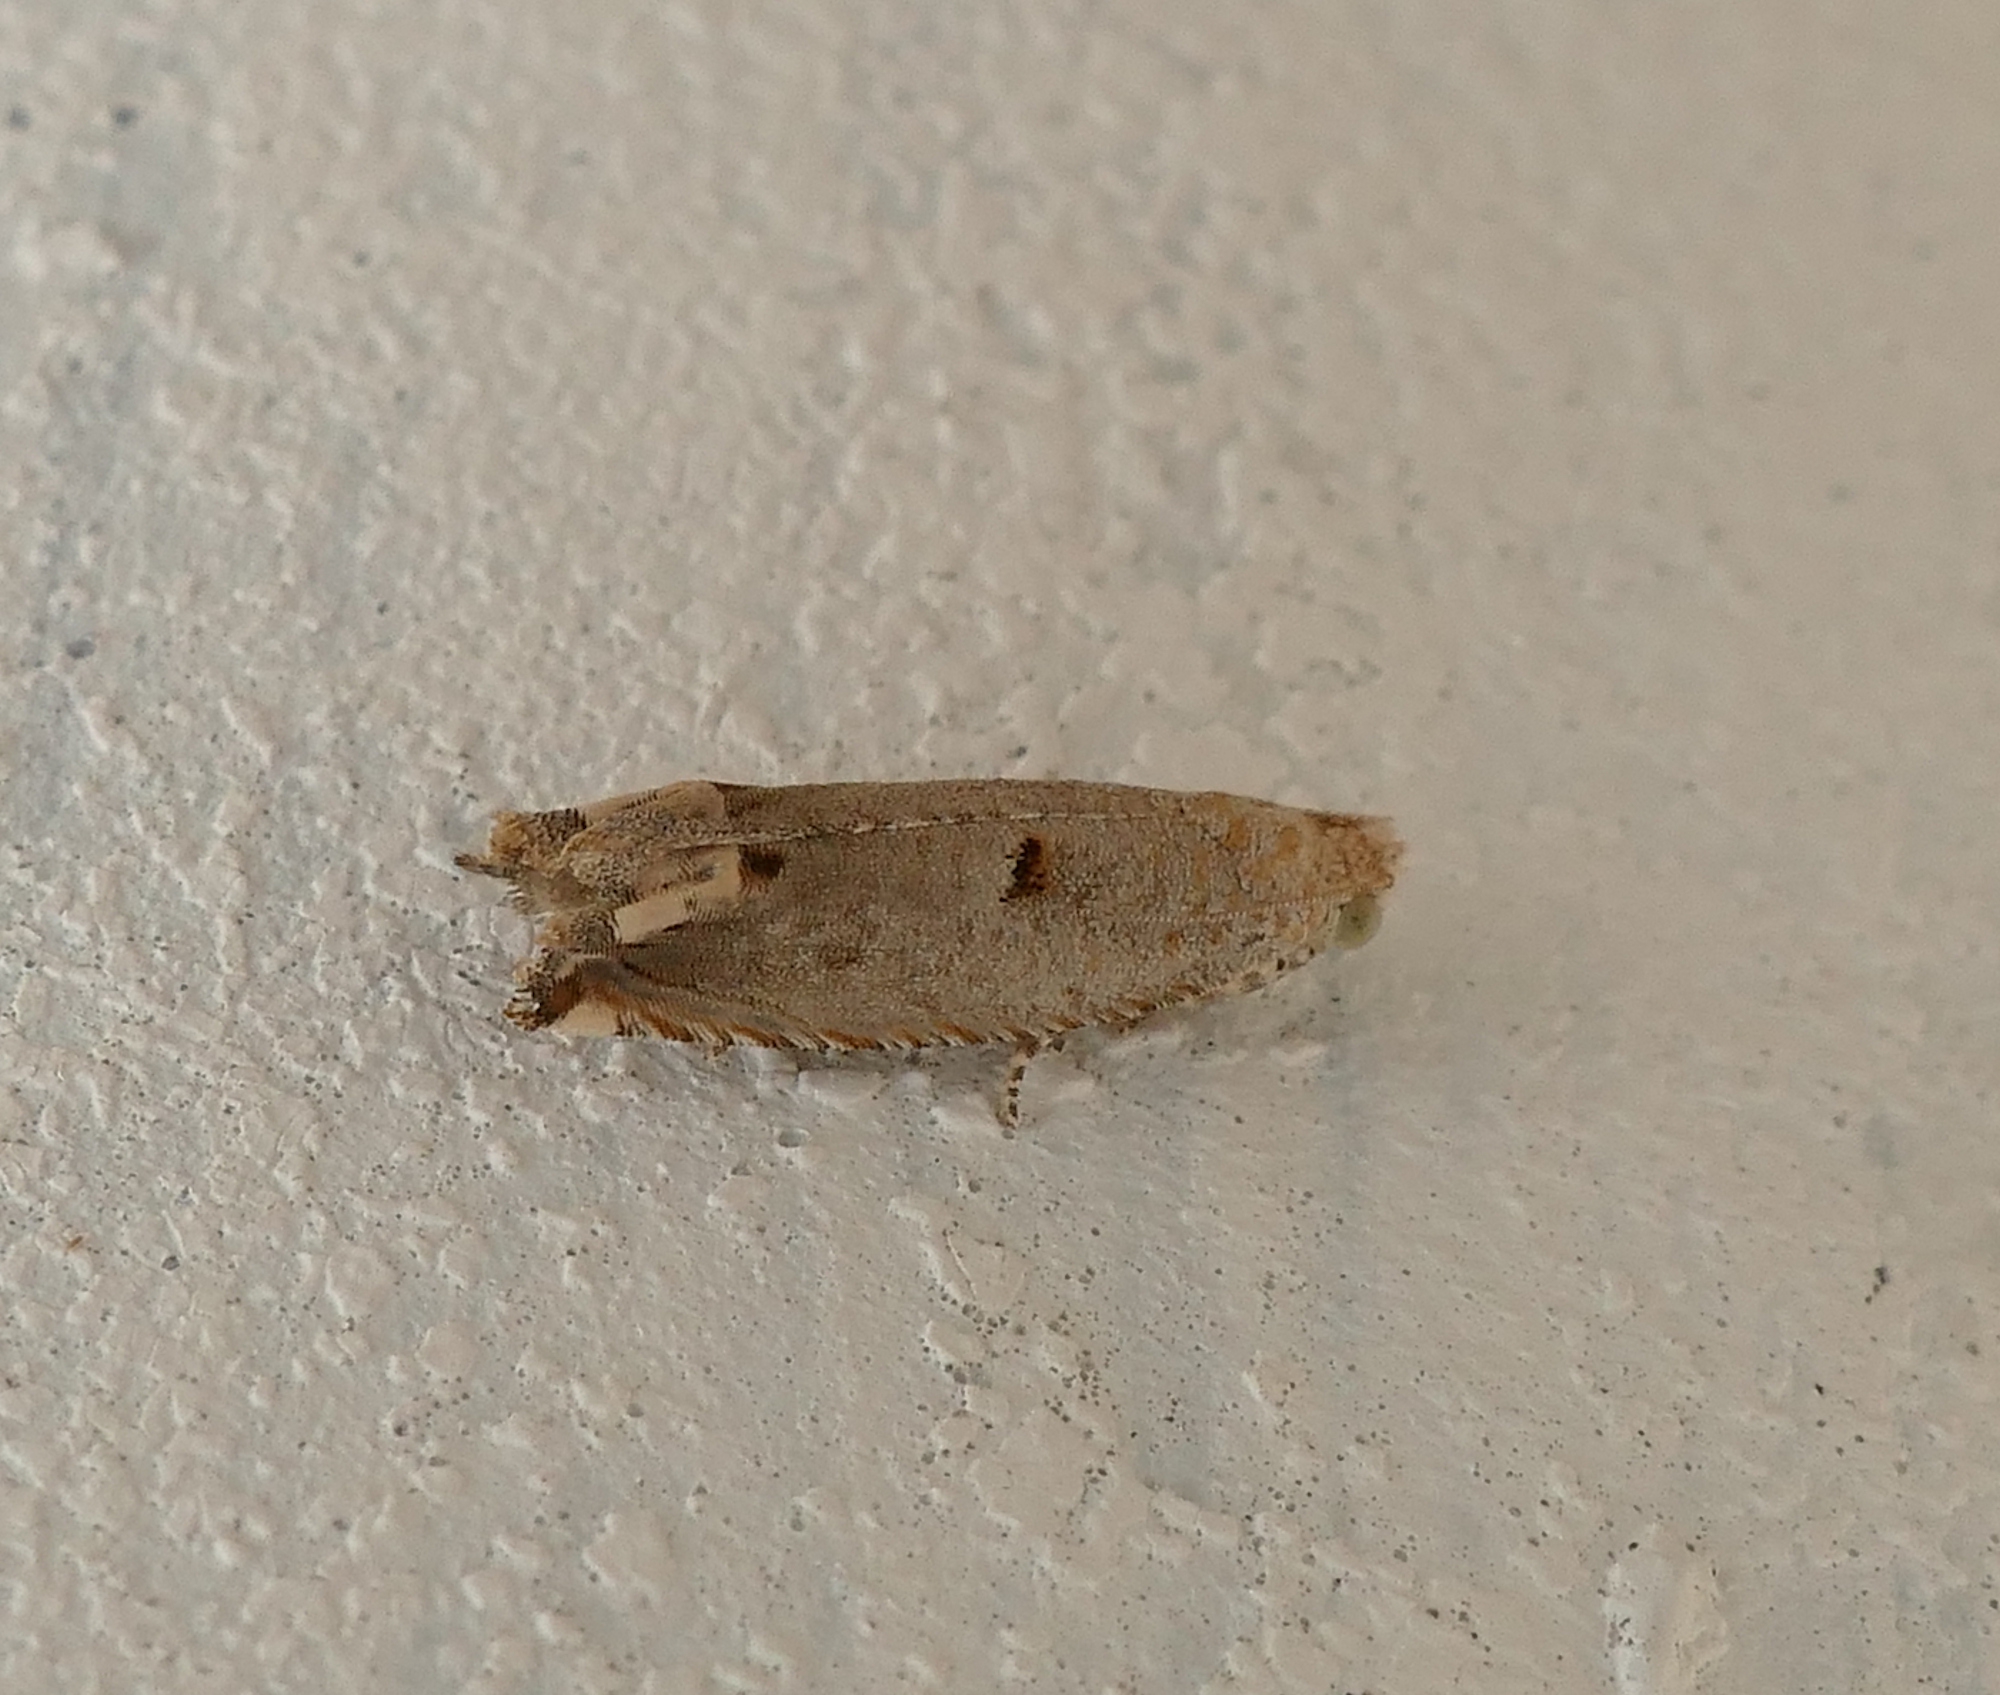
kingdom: Animalia
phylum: Arthropoda
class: Insecta
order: Lepidoptera
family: Tortricidae
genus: Epiblema
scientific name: Epiblema praesumptiosa
